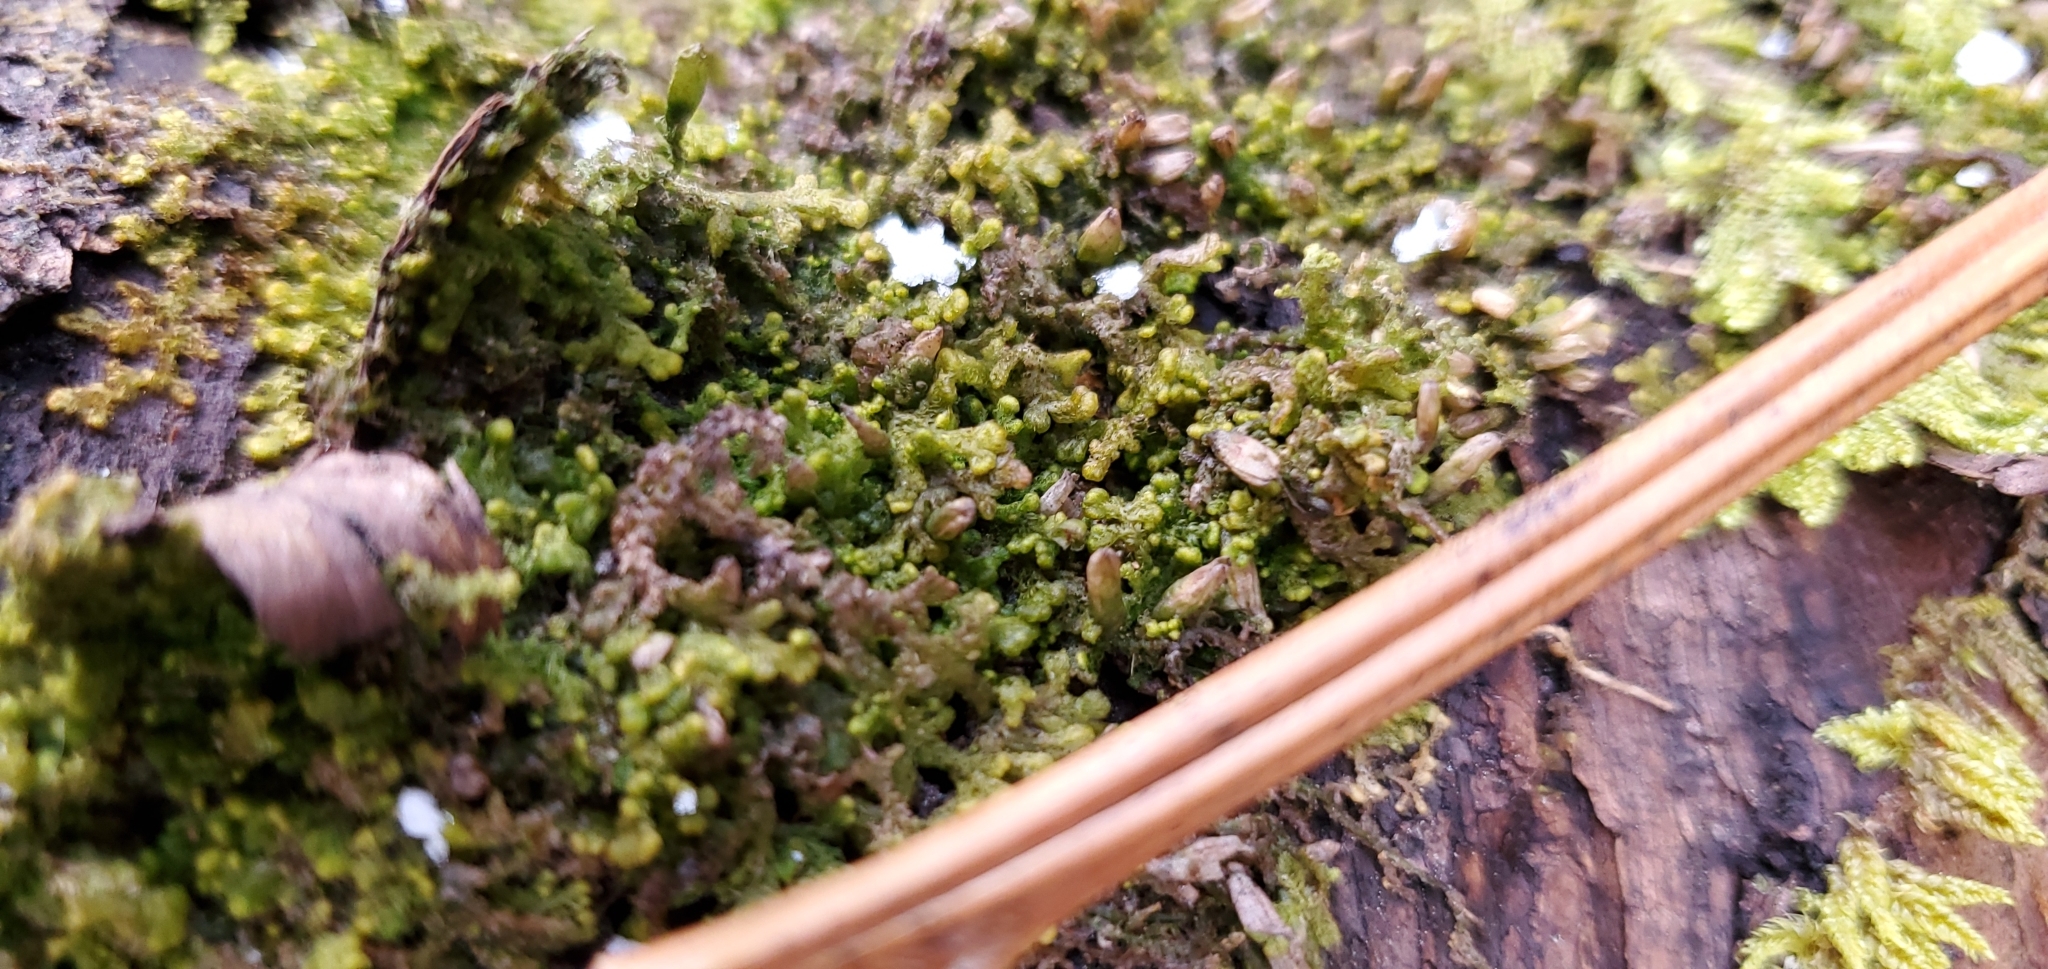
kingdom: Plantae
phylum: Marchantiophyta
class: Jungermanniopsida
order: Ptilidiales
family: Ptilidiaceae
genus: Ptilidium
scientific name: Ptilidium pulcherrimum
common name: Tree fringewort
